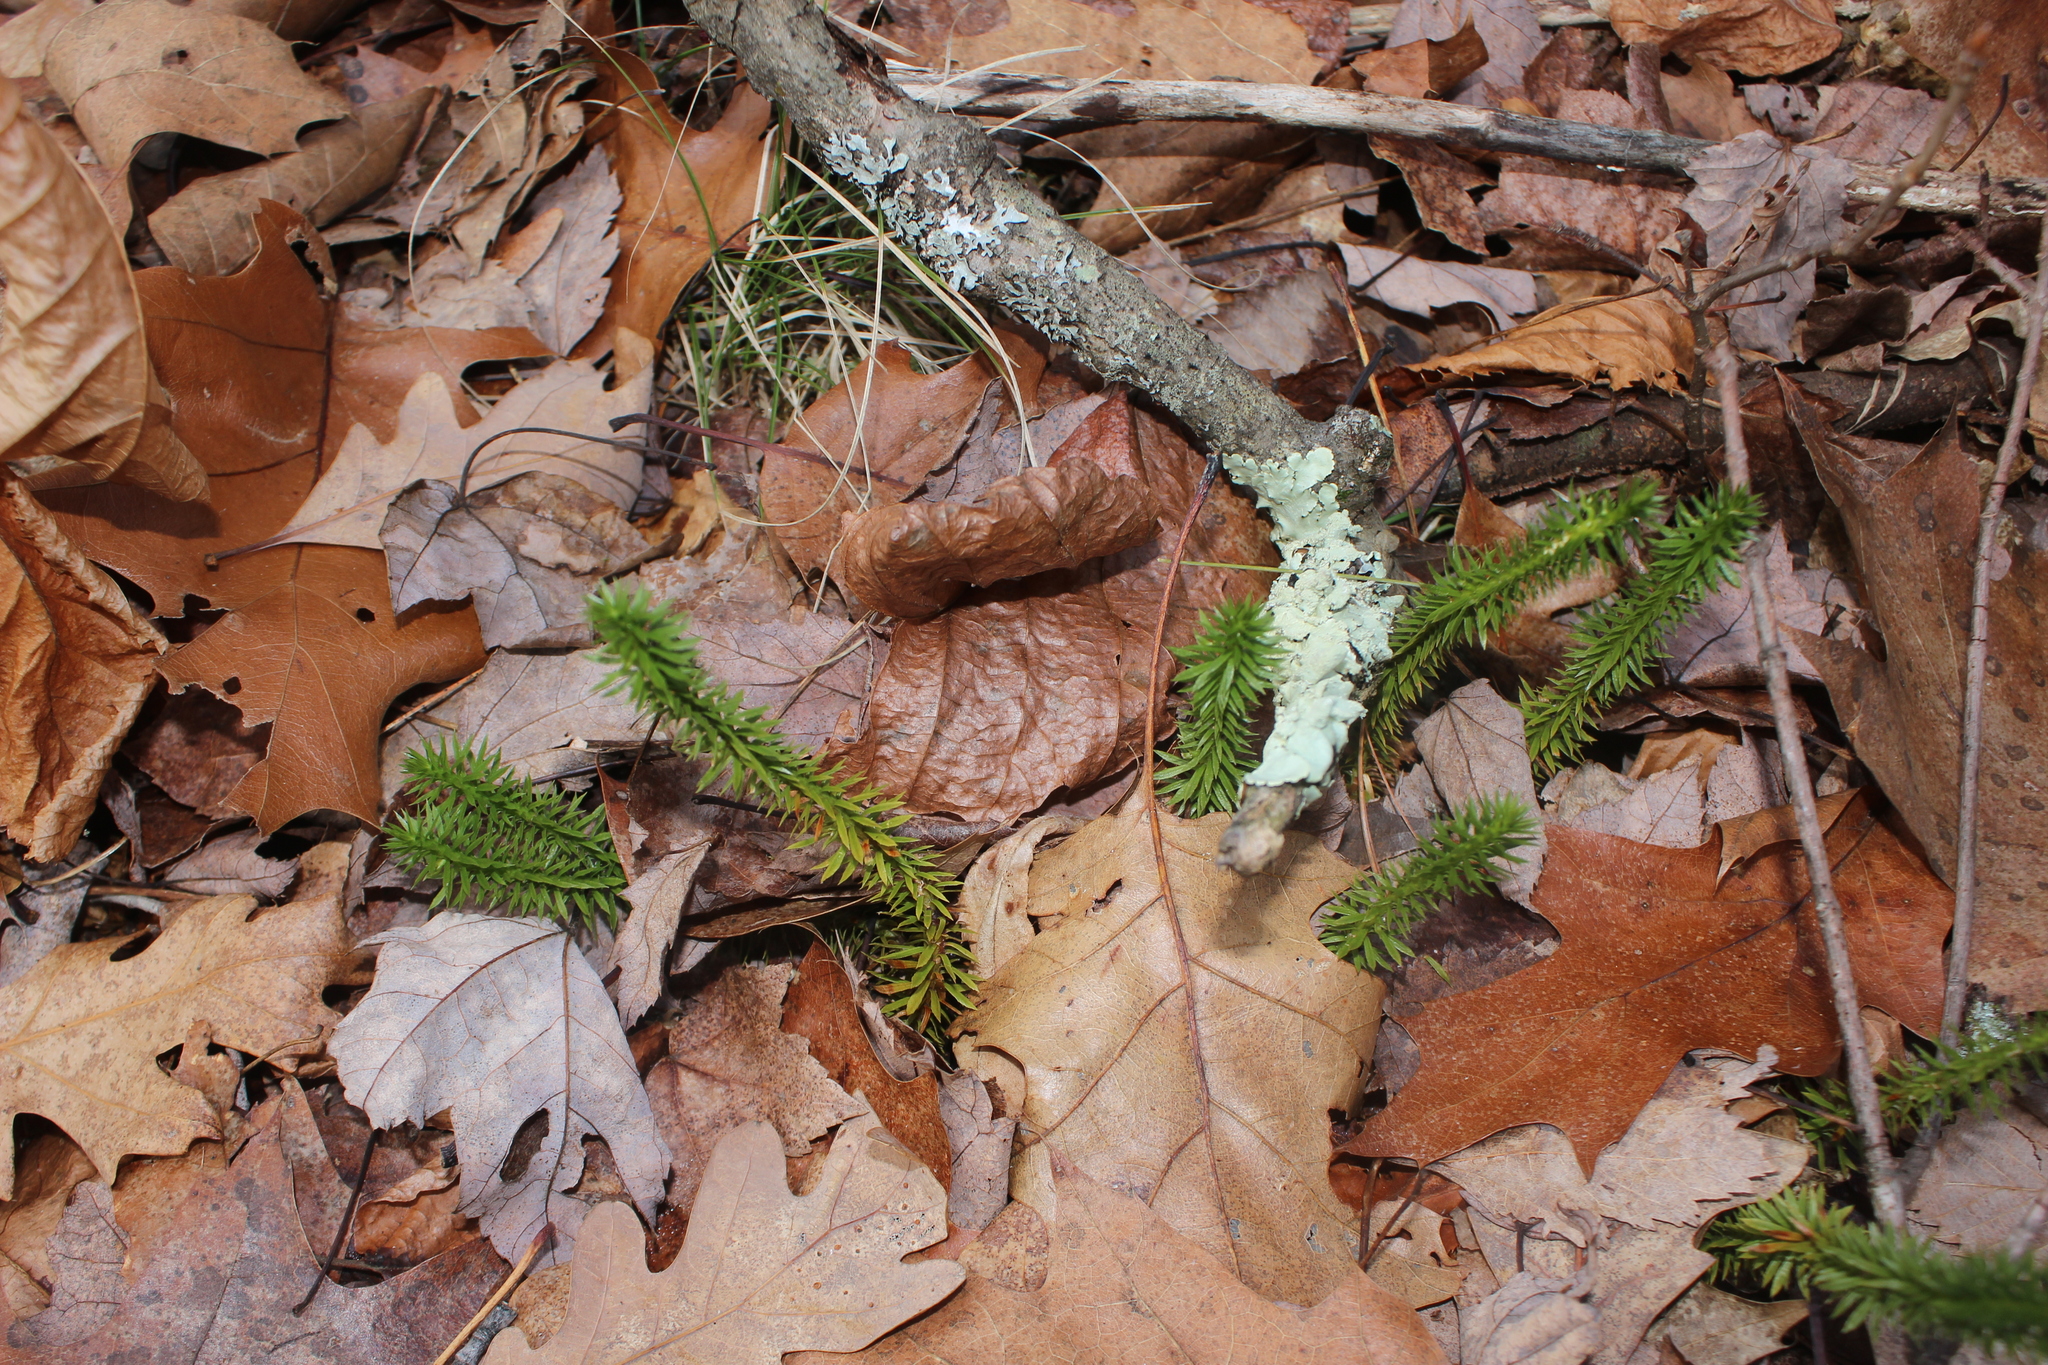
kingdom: Plantae
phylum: Tracheophyta
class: Lycopodiopsida
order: Lycopodiales
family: Lycopodiaceae
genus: Huperzia
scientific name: Huperzia lucidula
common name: Shining clubmoss
